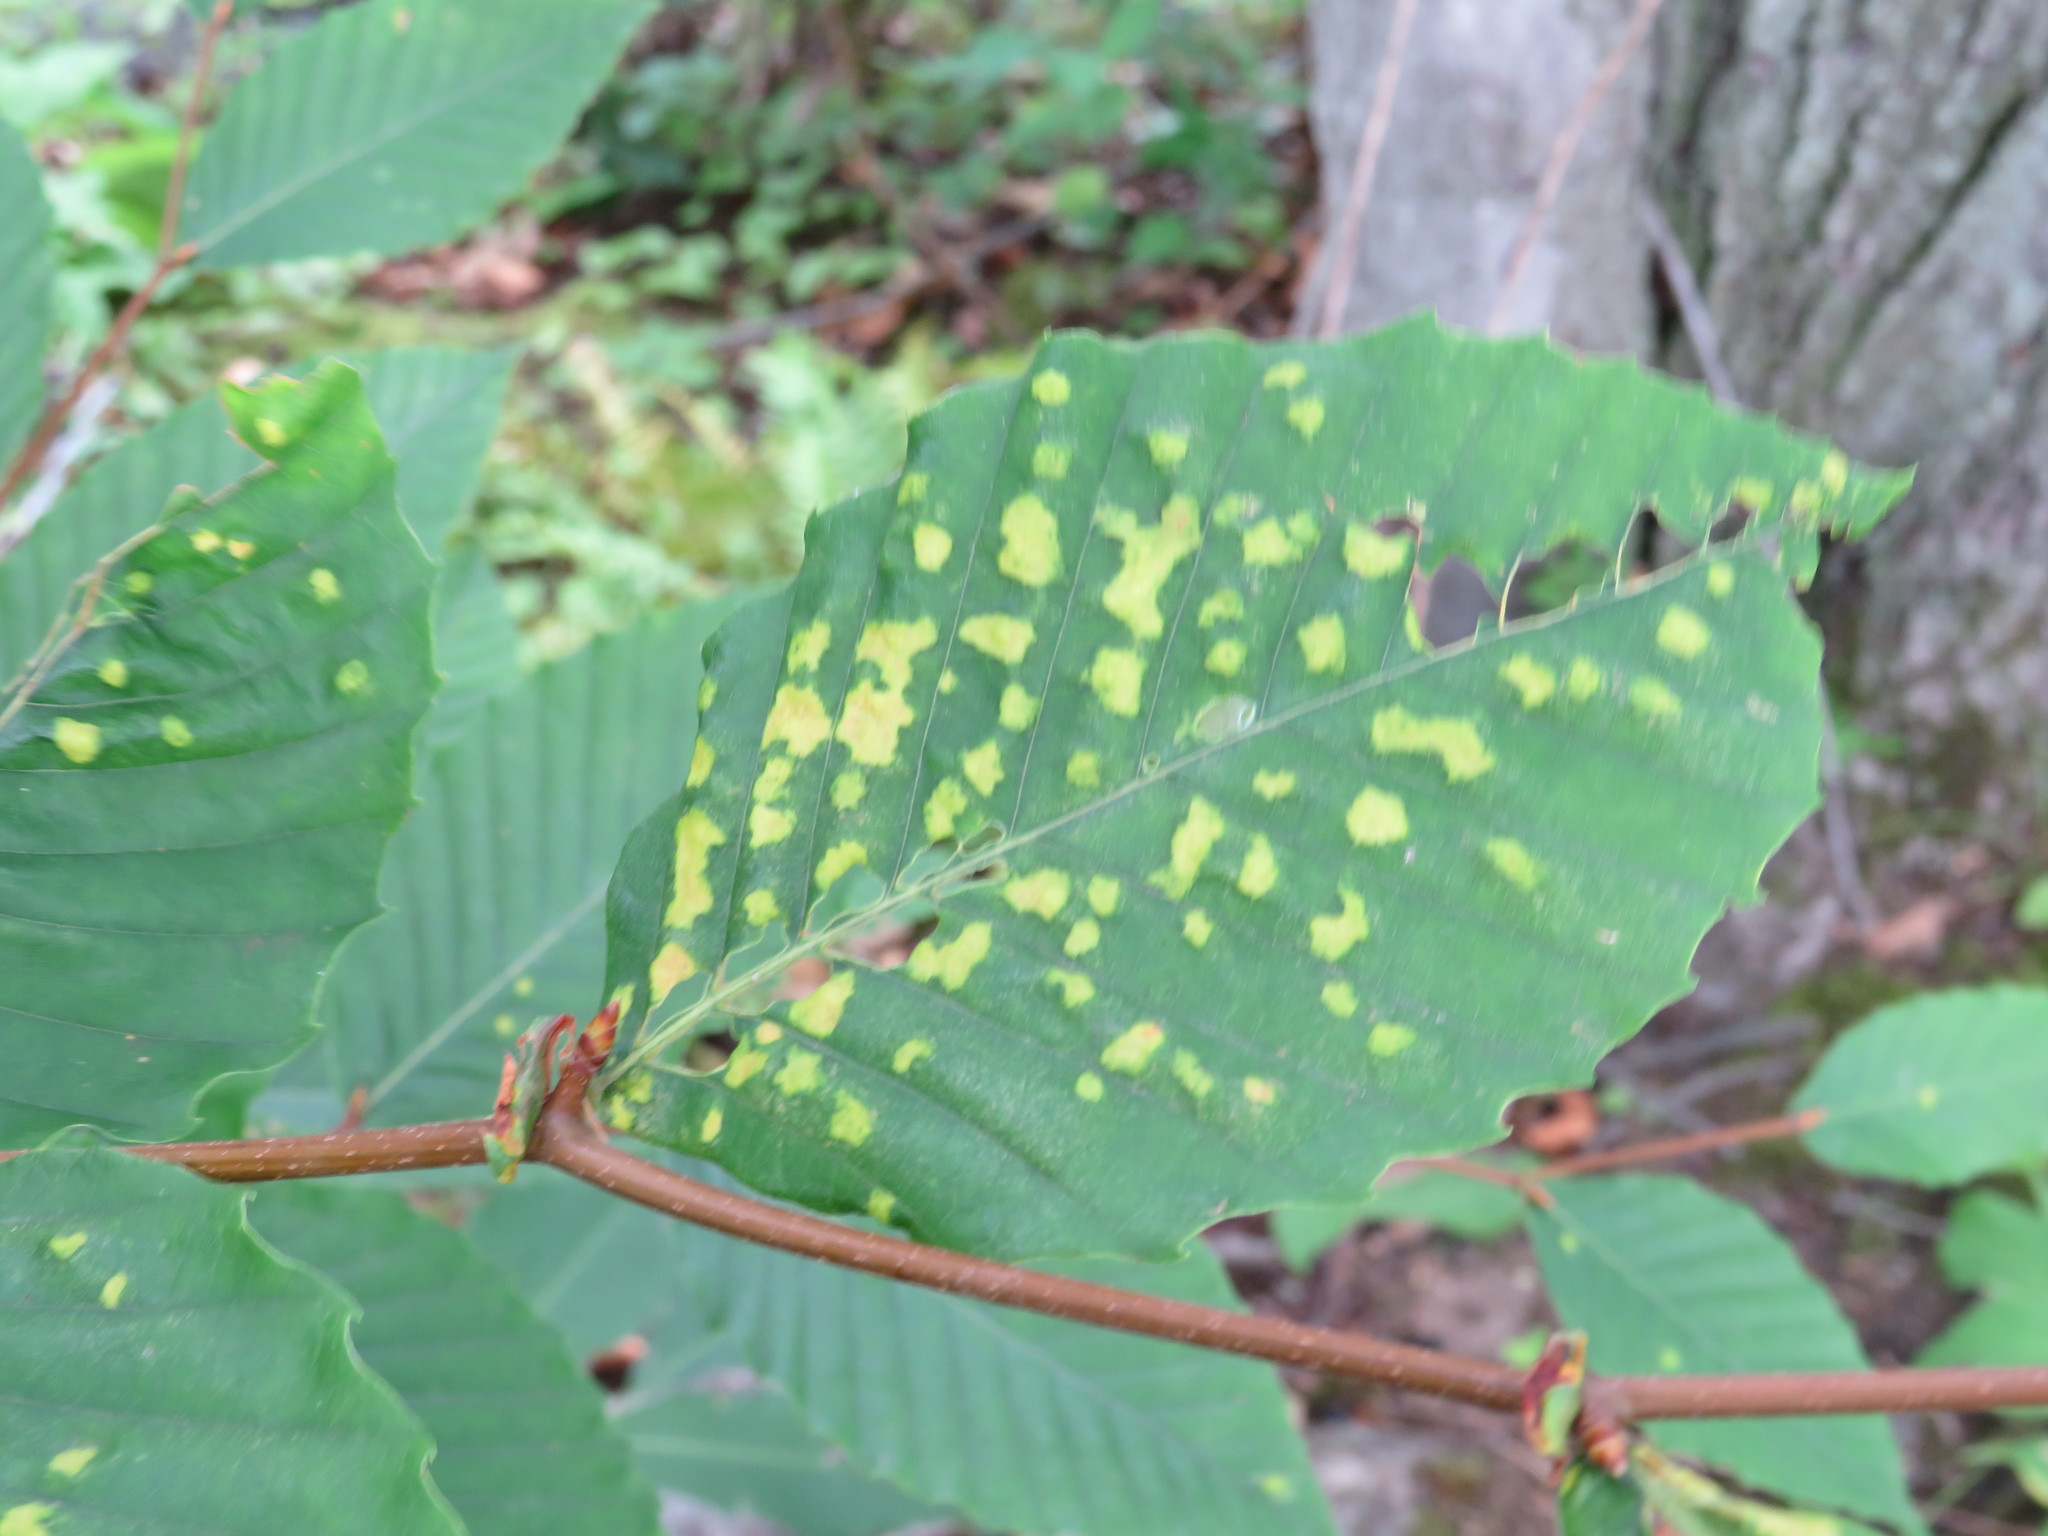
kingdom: Animalia
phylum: Arthropoda
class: Arachnida
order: Trombidiformes
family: Eriophyidae
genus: Acalitus
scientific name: Acalitus
